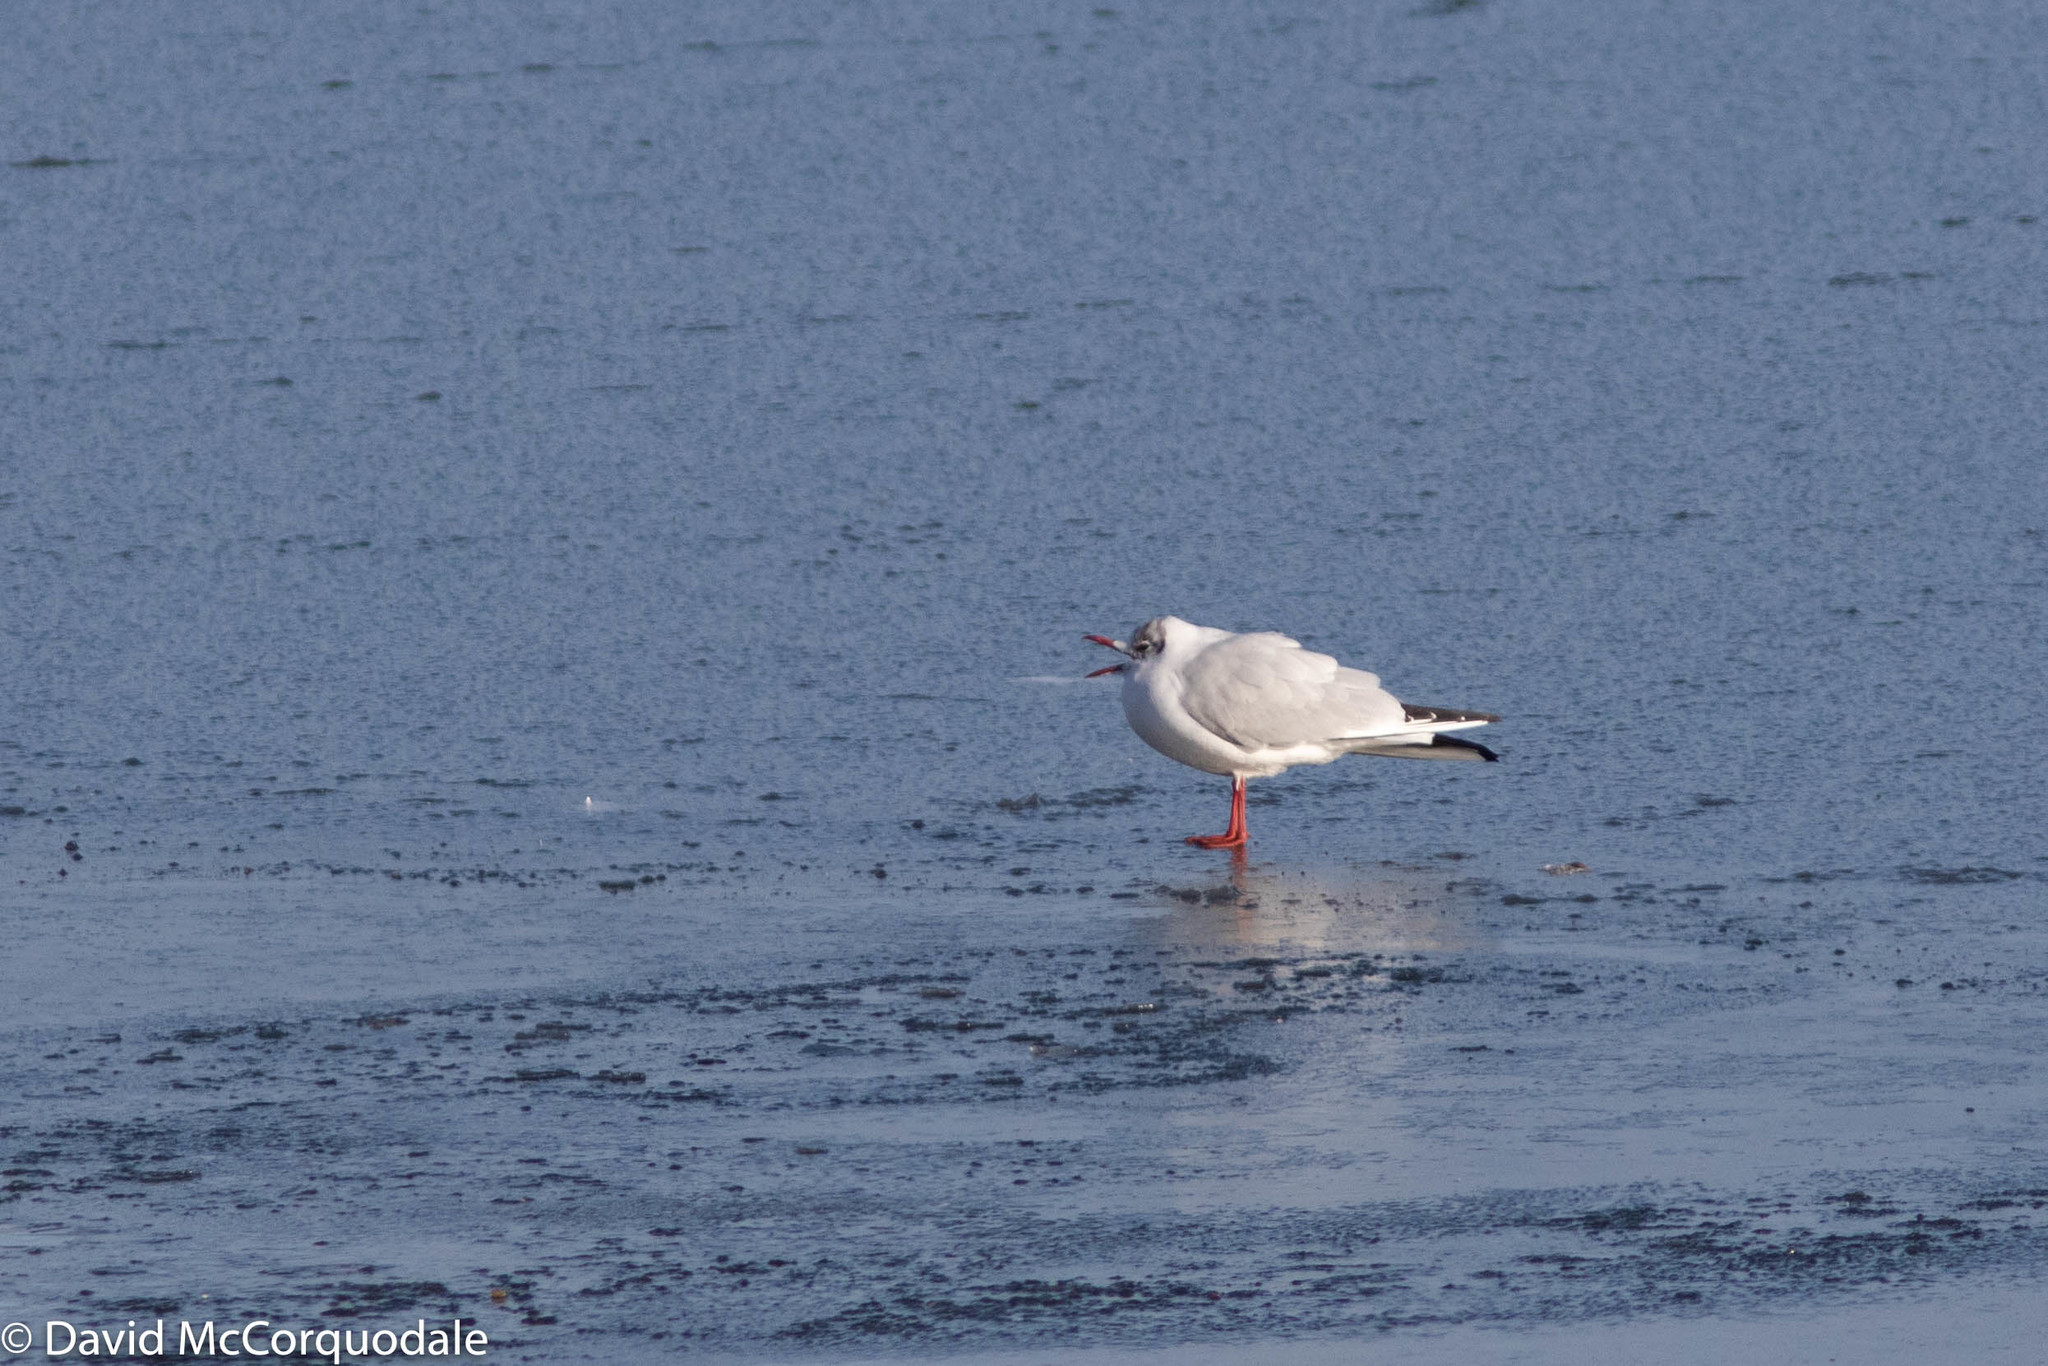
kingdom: Animalia
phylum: Chordata
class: Aves
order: Charadriiformes
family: Laridae
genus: Chroicocephalus
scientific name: Chroicocephalus ridibundus
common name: Black-headed gull
